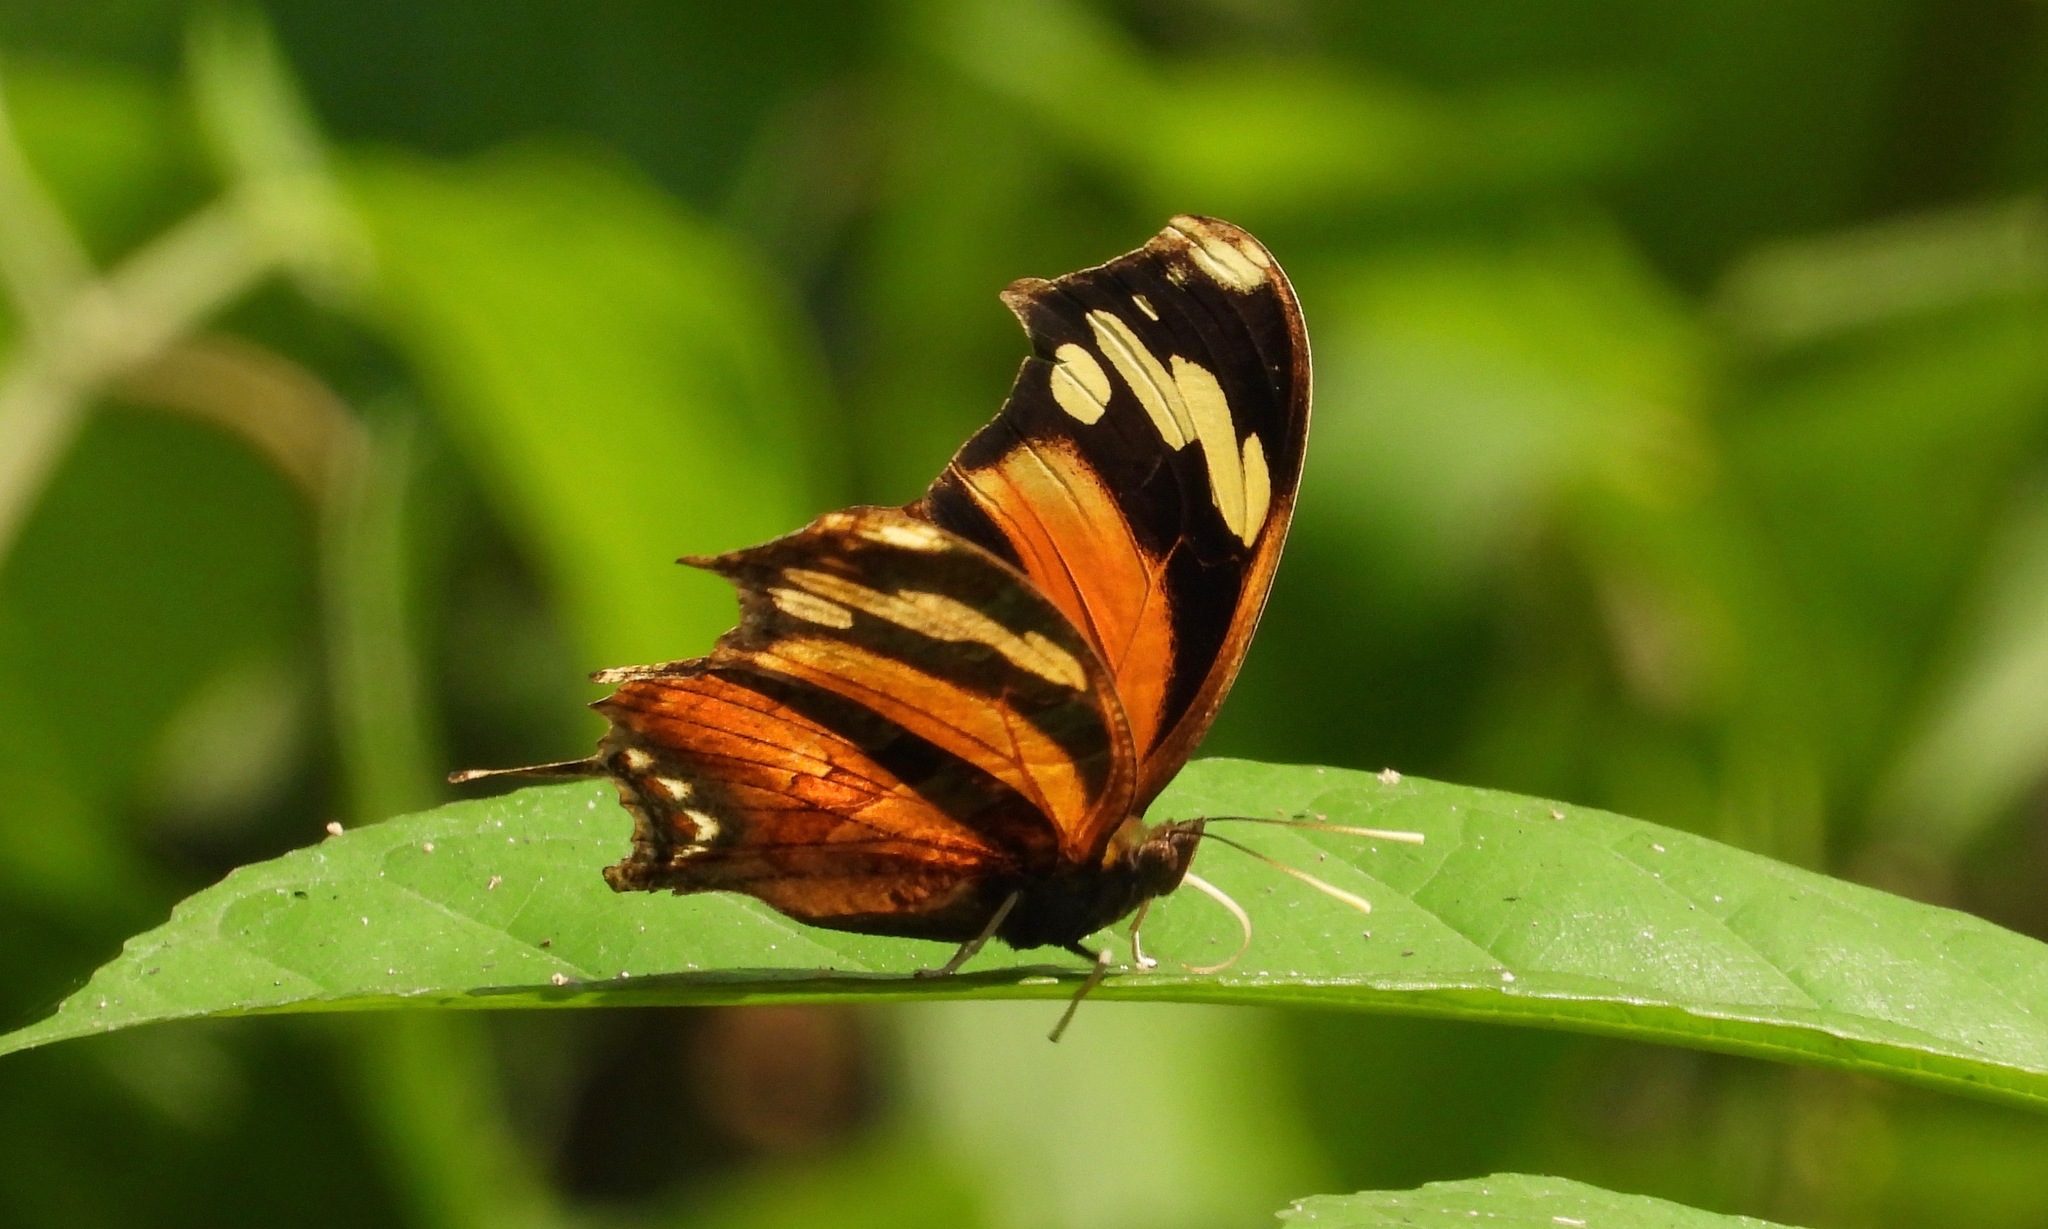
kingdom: Animalia
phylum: Arthropoda
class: Insecta
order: Lepidoptera
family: Nymphalidae
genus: Consul
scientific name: Consul fabius
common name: Tiger leafwing
